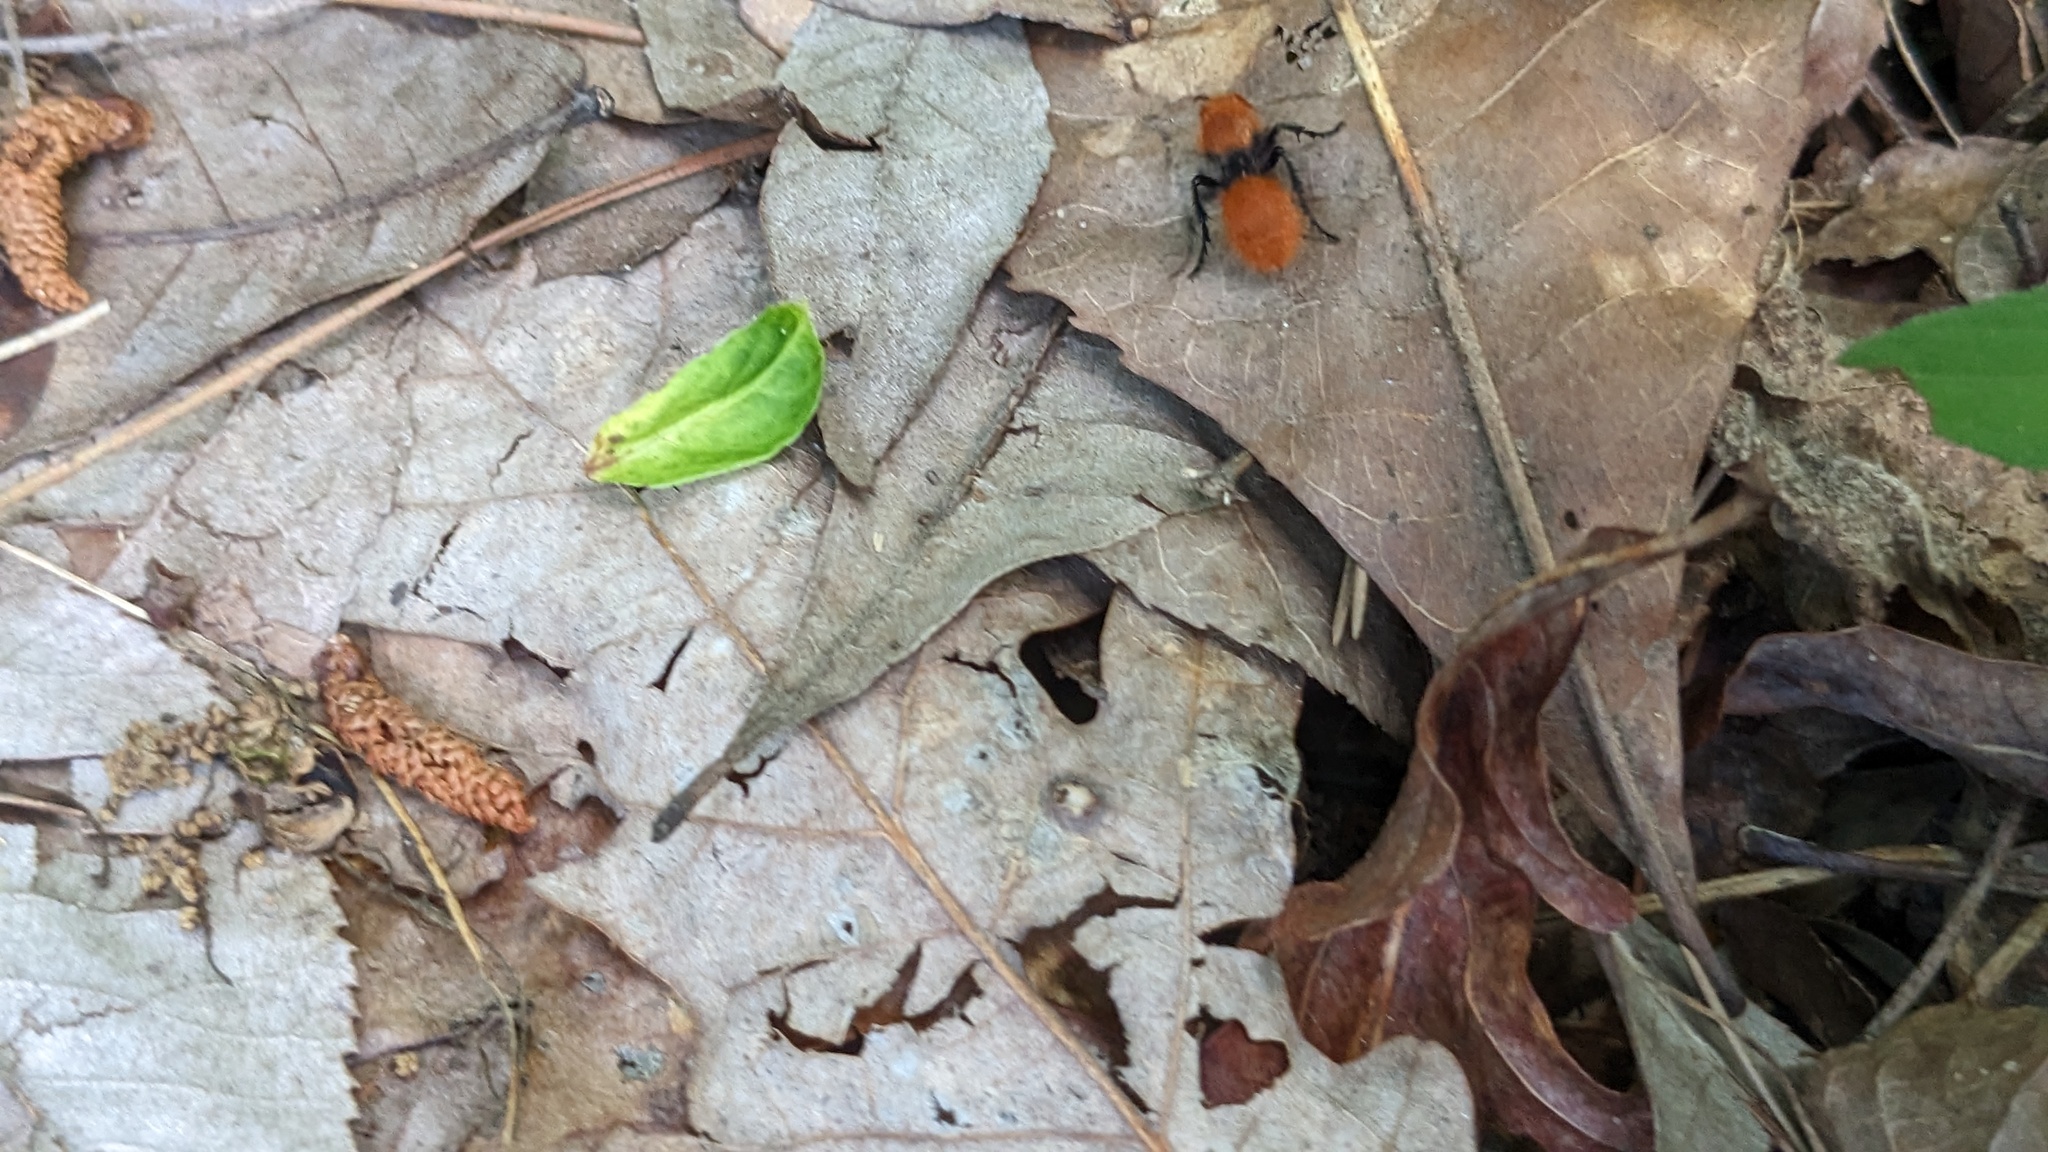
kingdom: Animalia
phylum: Arthropoda
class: Insecta
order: Hymenoptera
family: Mutillidae
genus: Dasymutilla
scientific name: Dasymutilla vestita
